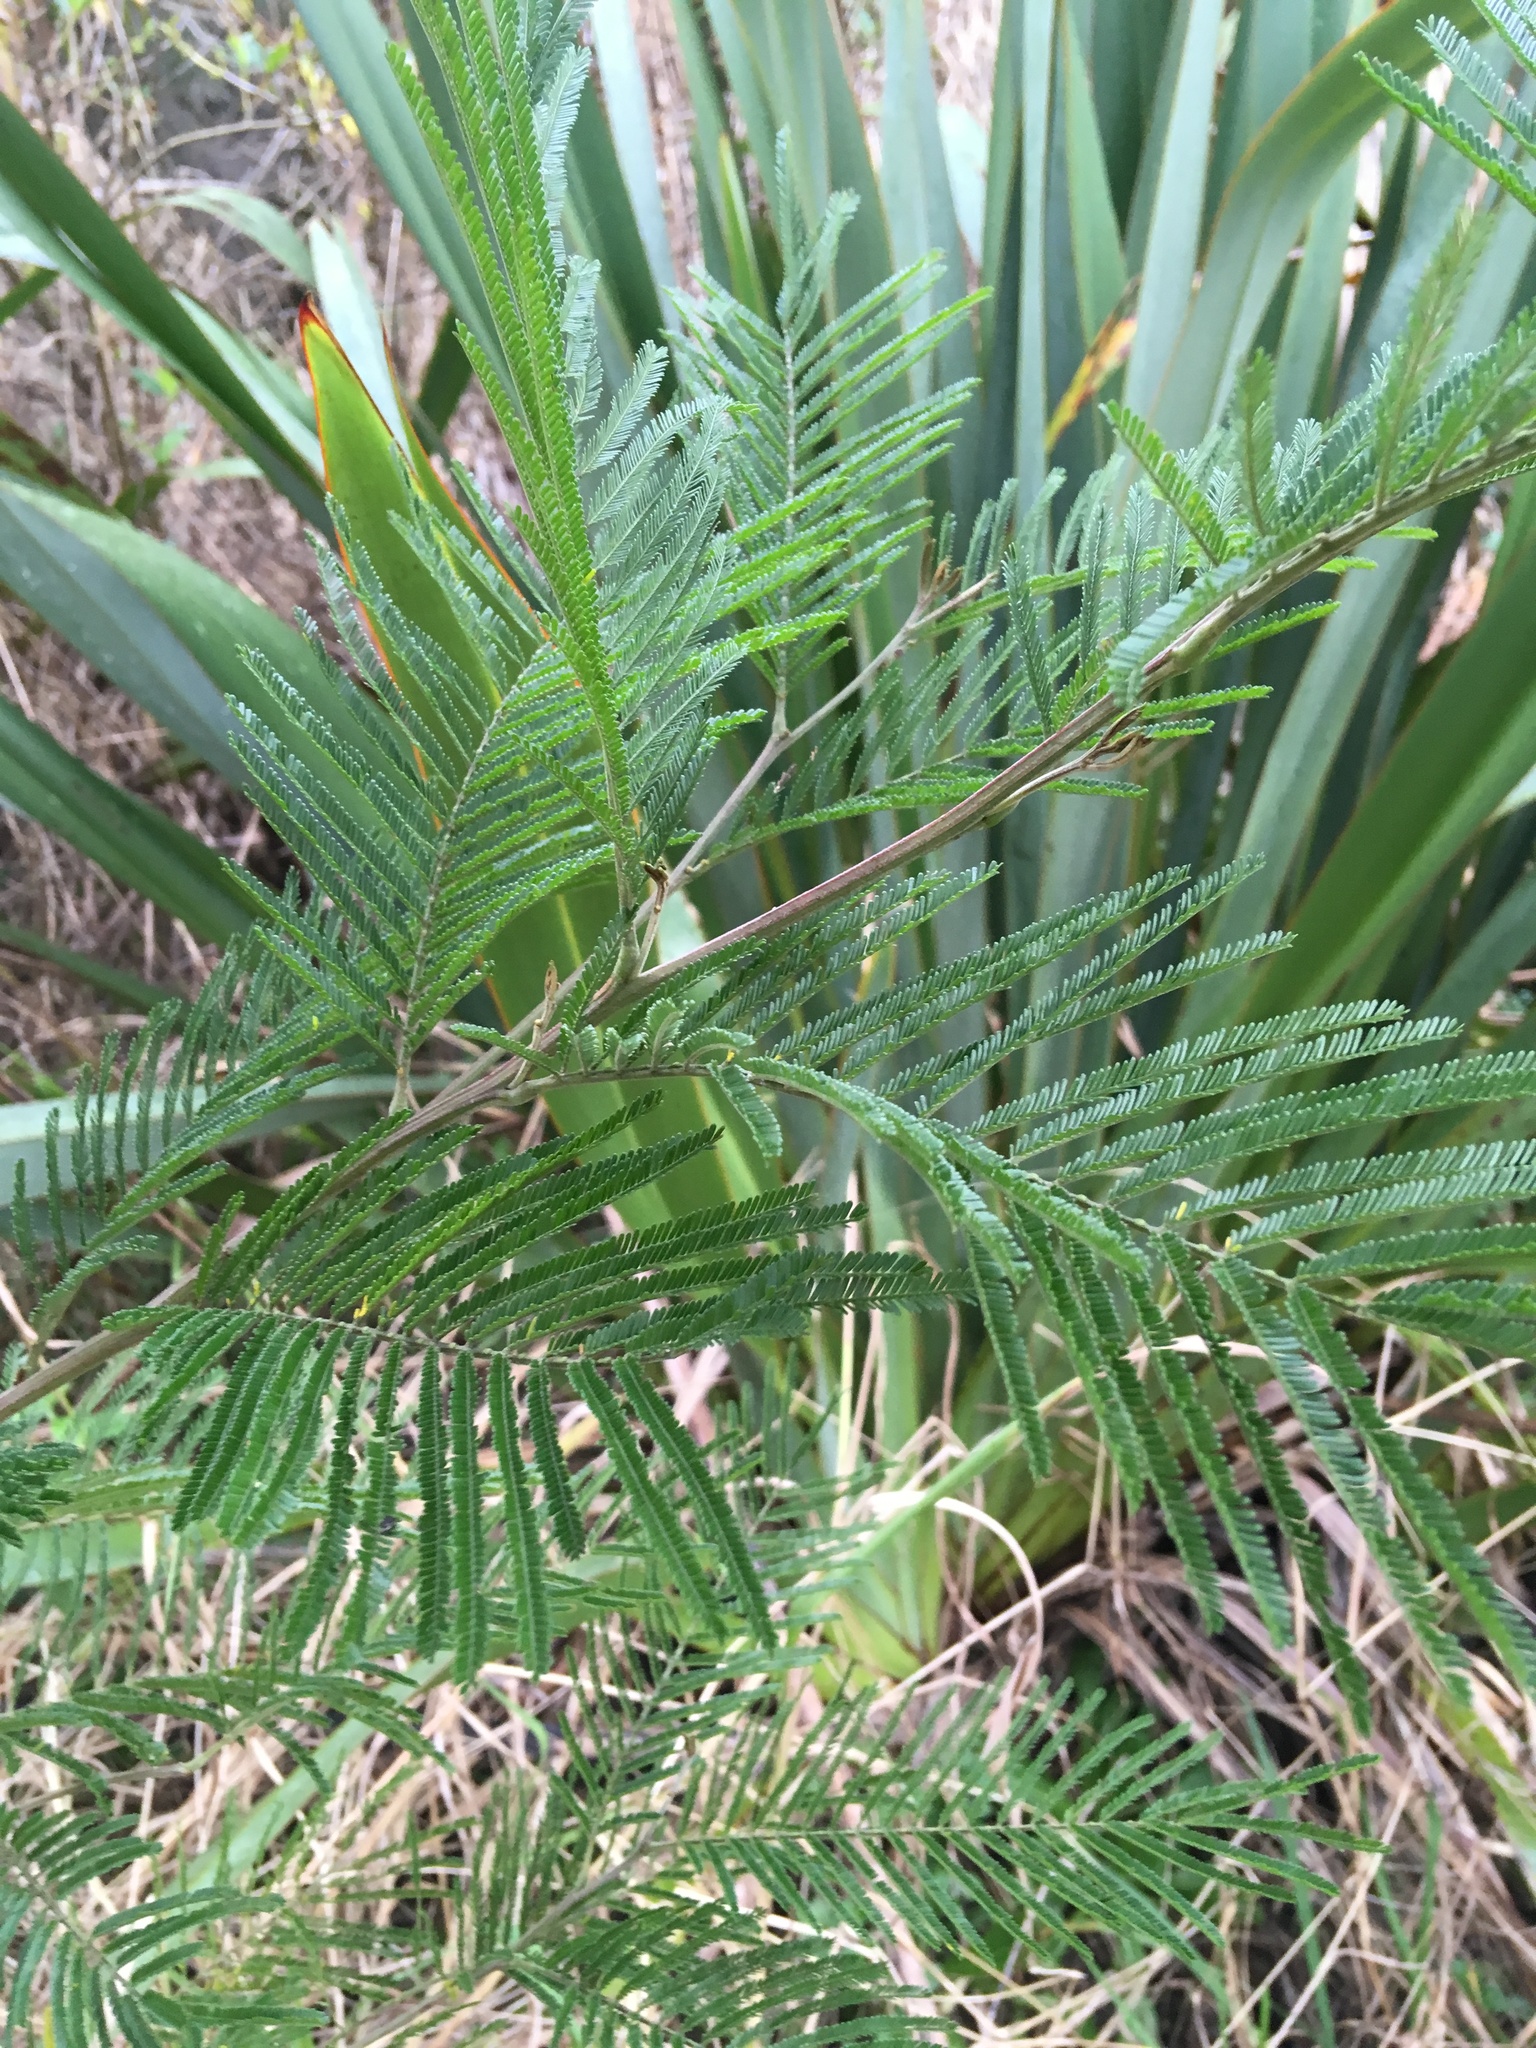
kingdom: Plantae
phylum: Tracheophyta
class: Magnoliopsida
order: Fabales
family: Fabaceae
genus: Acacia
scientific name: Acacia mearnsii
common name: Black wattle
